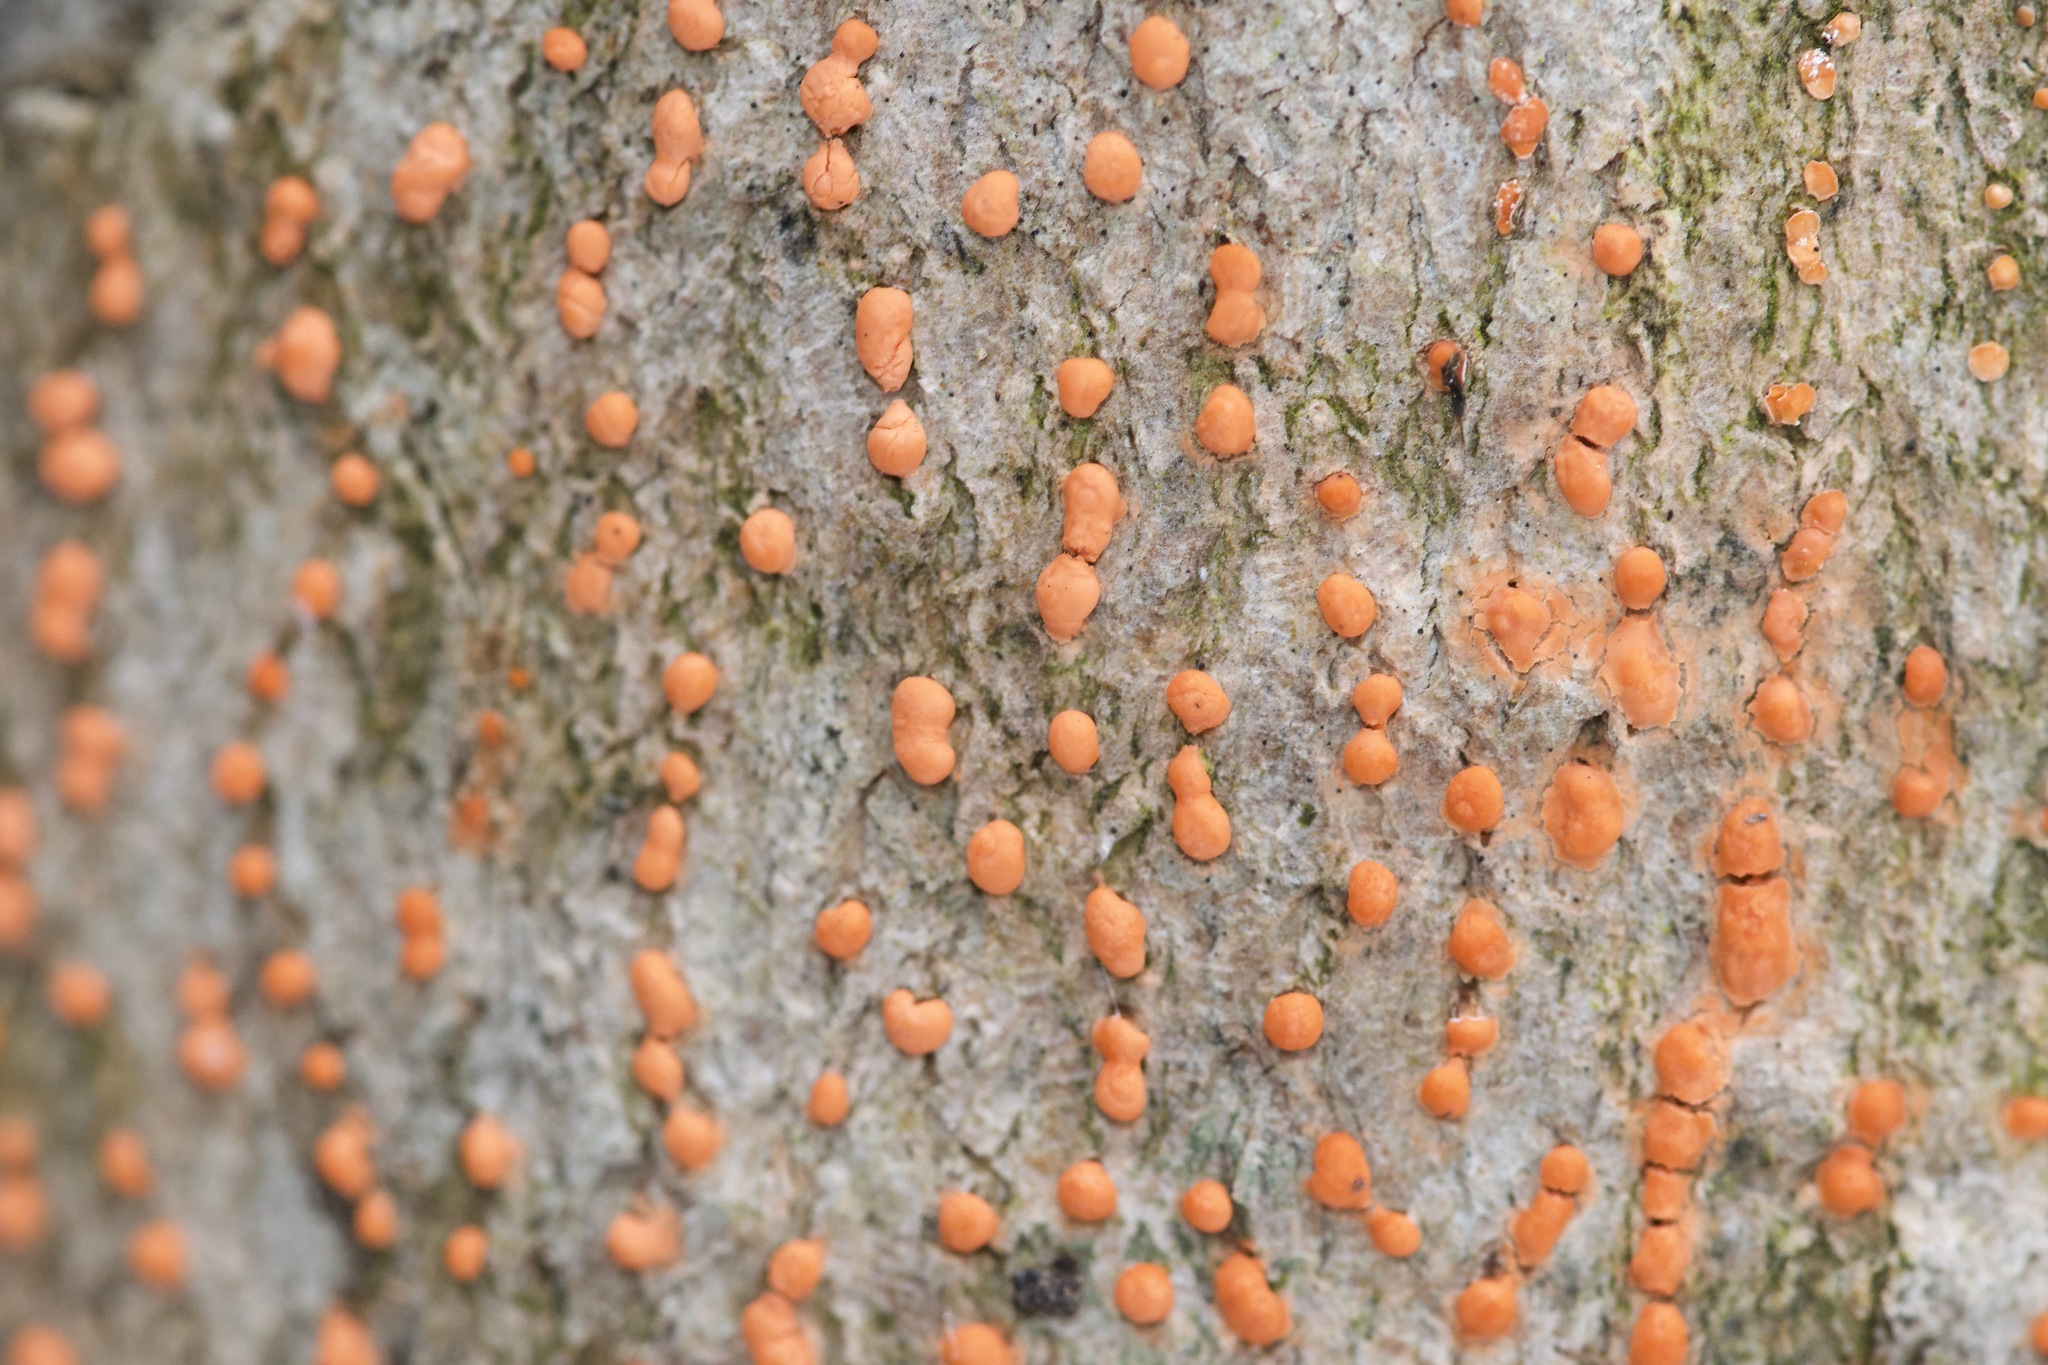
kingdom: Fungi
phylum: Ascomycota
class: Sordariomycetes
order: Hypocreales
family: Nectriaceae
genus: Nectria
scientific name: Nectria cinnabarina
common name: Coral spot
